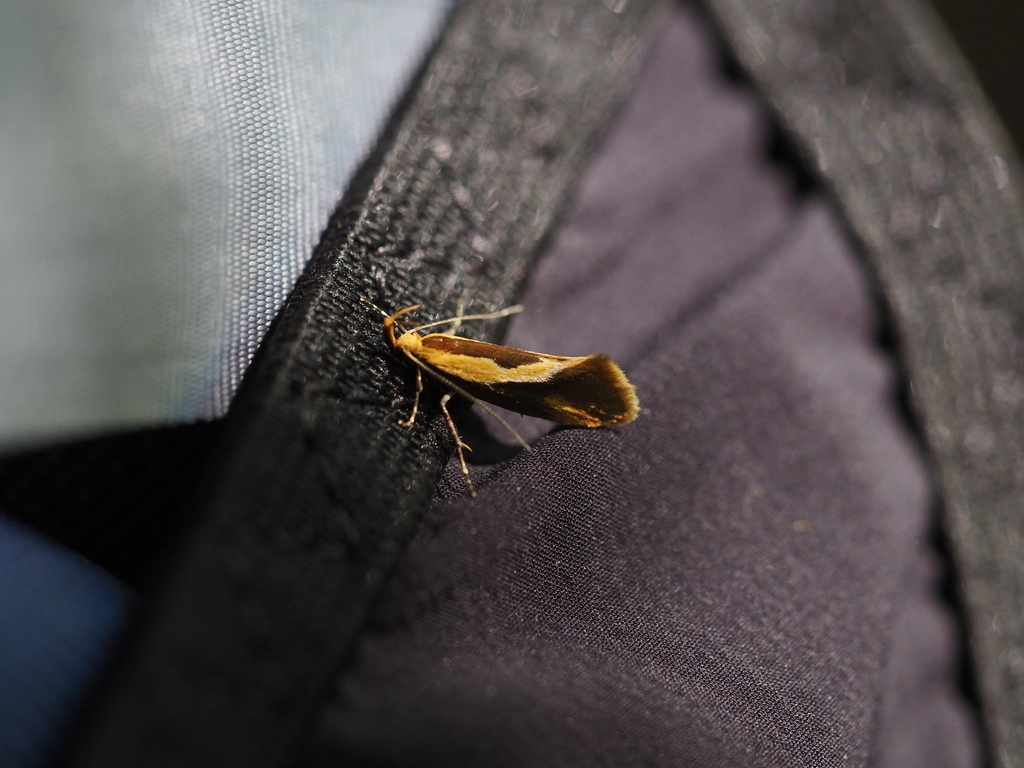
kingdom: Animalia
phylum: Arthropoda
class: Insecta
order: Lepidoptera
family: Oecophoridae
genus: Harpella
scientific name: Harpella forficella
